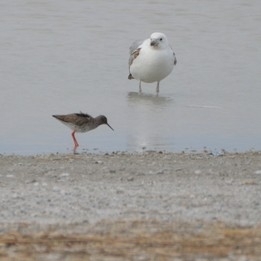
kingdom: Animalia
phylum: Chordata
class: Aves
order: Charadriiformes
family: Scolopacidae
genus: Tringa
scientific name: Tringa totanus
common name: Common redshank
